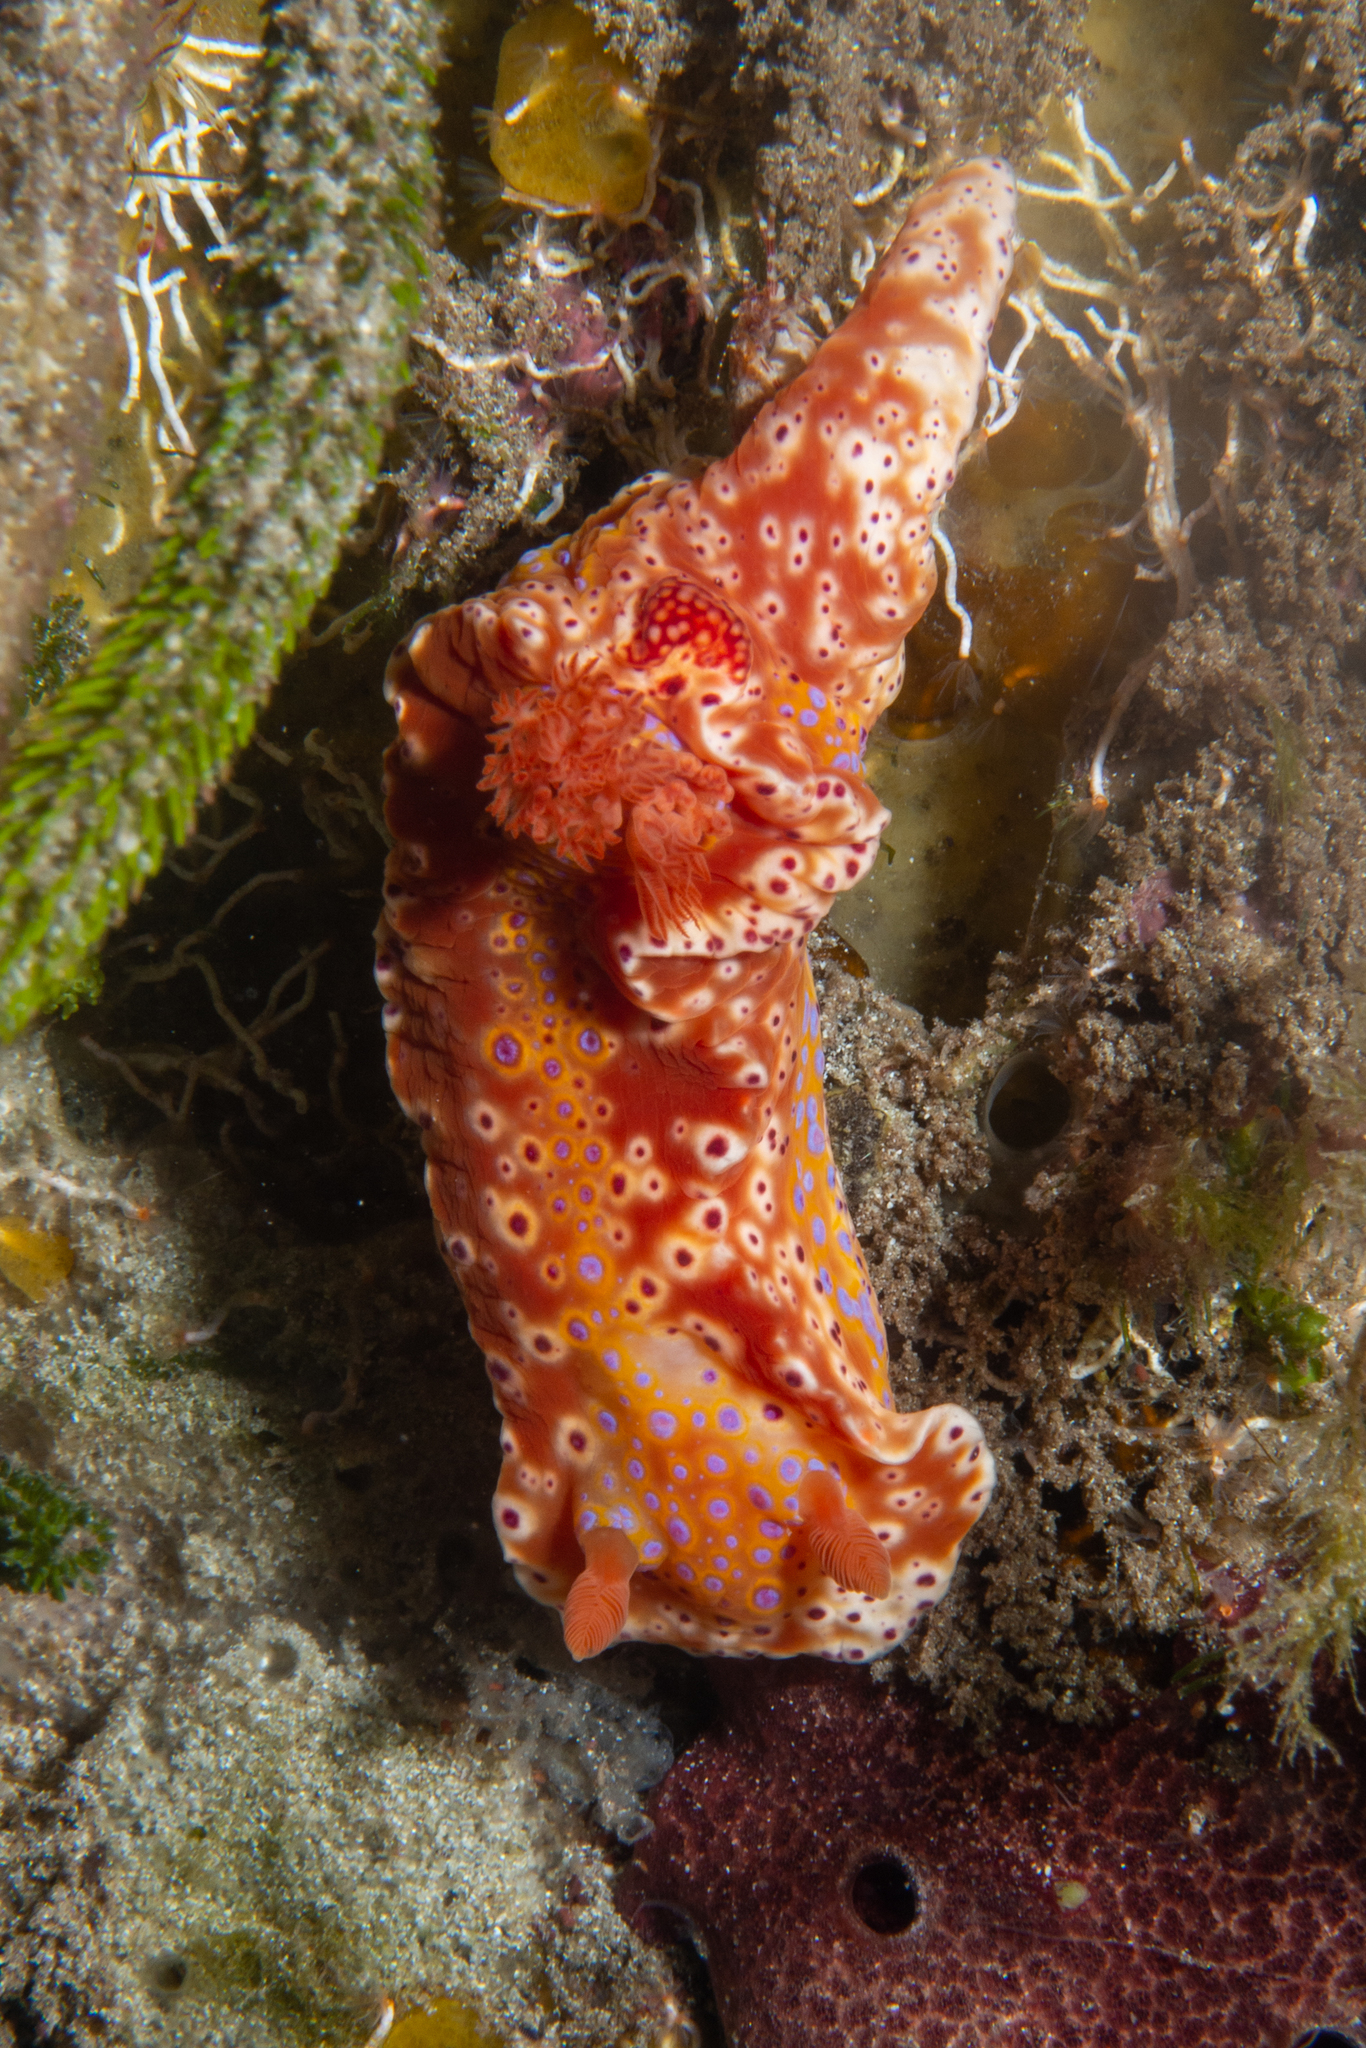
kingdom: Animalia
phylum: Mollusca
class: Gastropoda
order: Nudibranchia
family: Chromodorididae
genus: Ceratosoma
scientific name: Ceratosoma brevicaudatum
